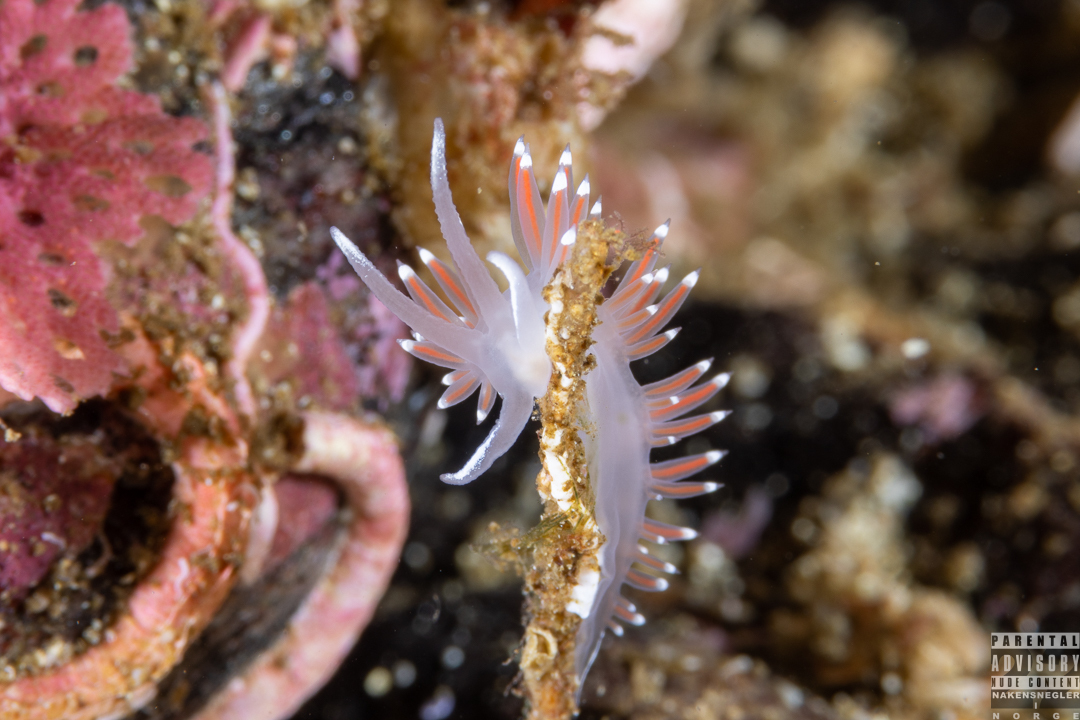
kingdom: Animalia
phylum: Mollusca
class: Gastropoda
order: Nudibranchia
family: Coryphellidae
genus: Coryphella
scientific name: Coryphella verrucosa
